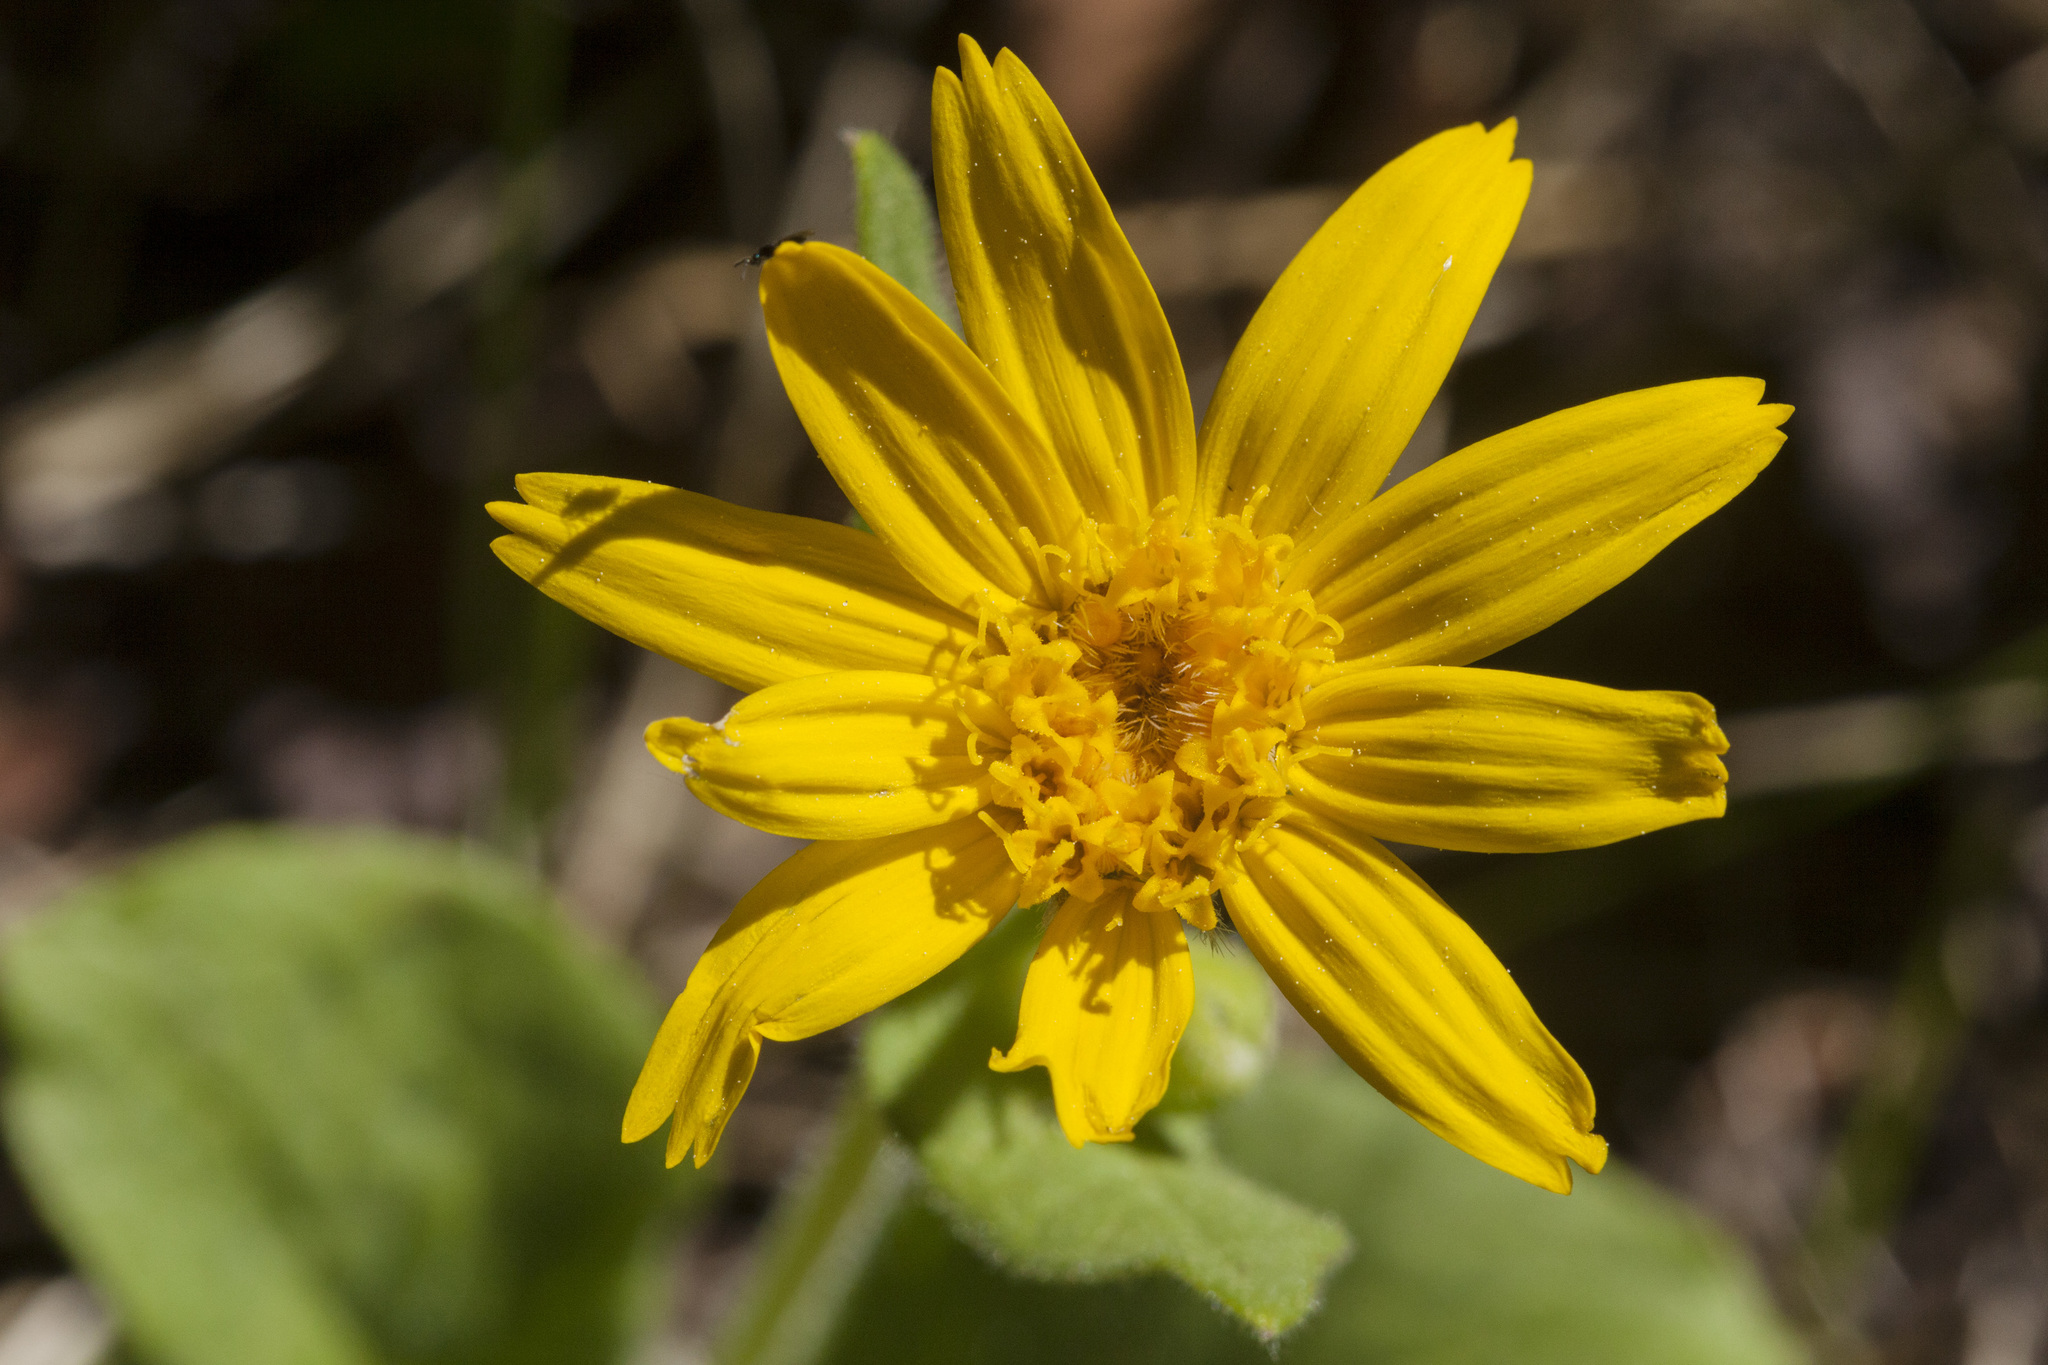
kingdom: Plantae
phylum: Tracheophyta
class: Magnoliopsida
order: Asterales
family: Asteraceae
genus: Arnica
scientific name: Arnica cordifolia
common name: Heart-leaf arnica
